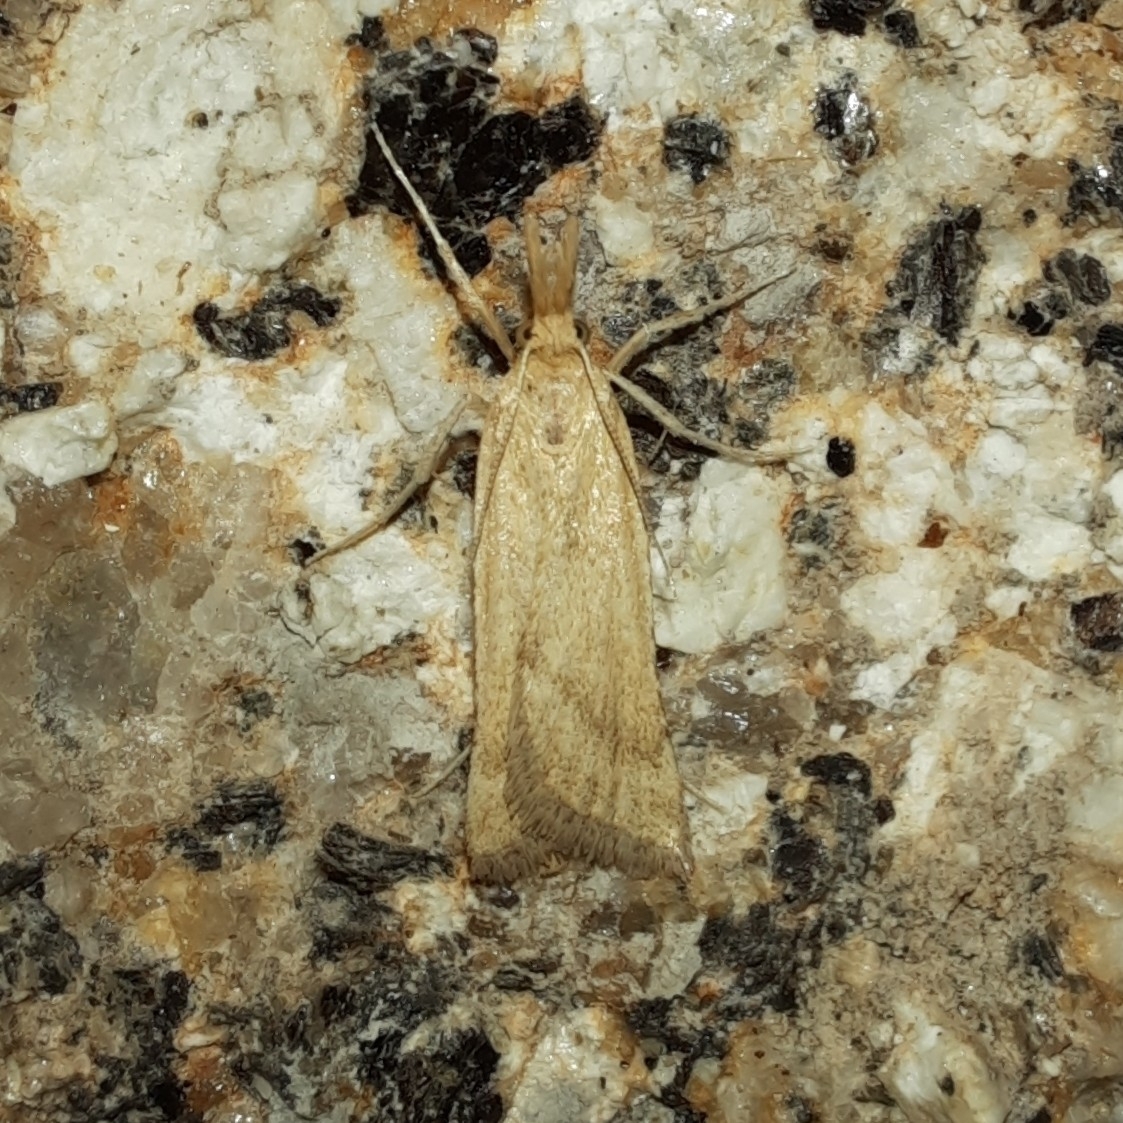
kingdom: Animalia
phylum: Arthropoda
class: Insecta
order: Lepidoptera
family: Pyralidae
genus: Synaphe
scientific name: Synaphe punctalis
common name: Long-legged tabby
